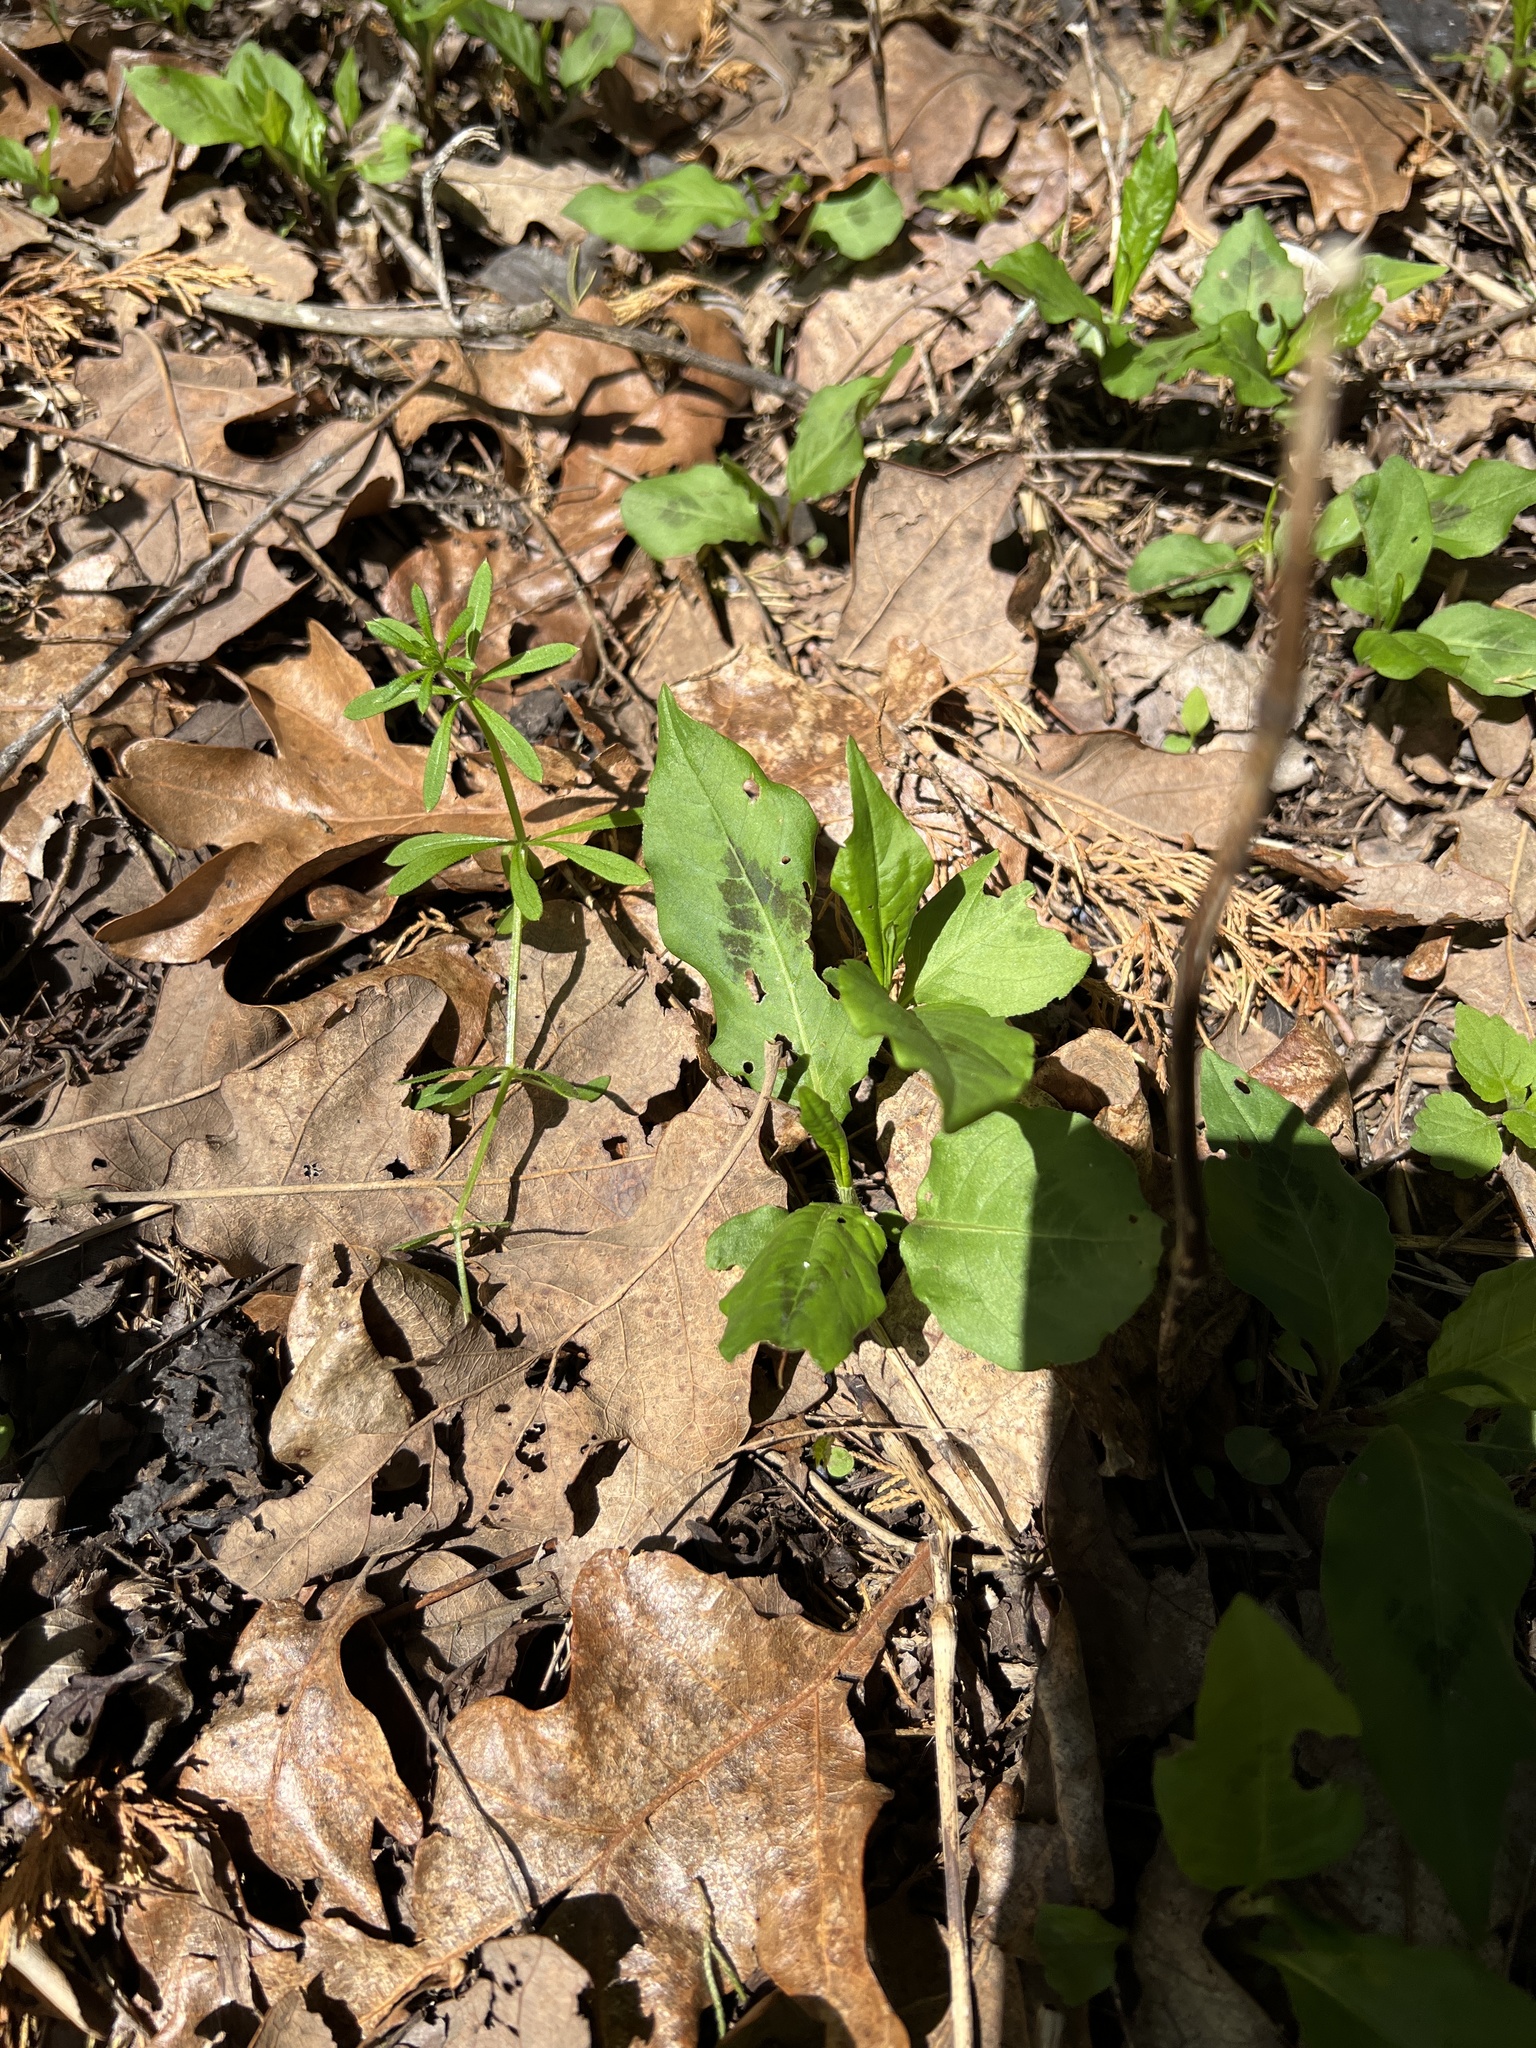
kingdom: Plantae
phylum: Tracheophyta
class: Magnoliopsida
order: Caryophyllales
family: Polygonaceae
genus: Persicaria
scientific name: Persicaria virginiana
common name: Jumpseed
